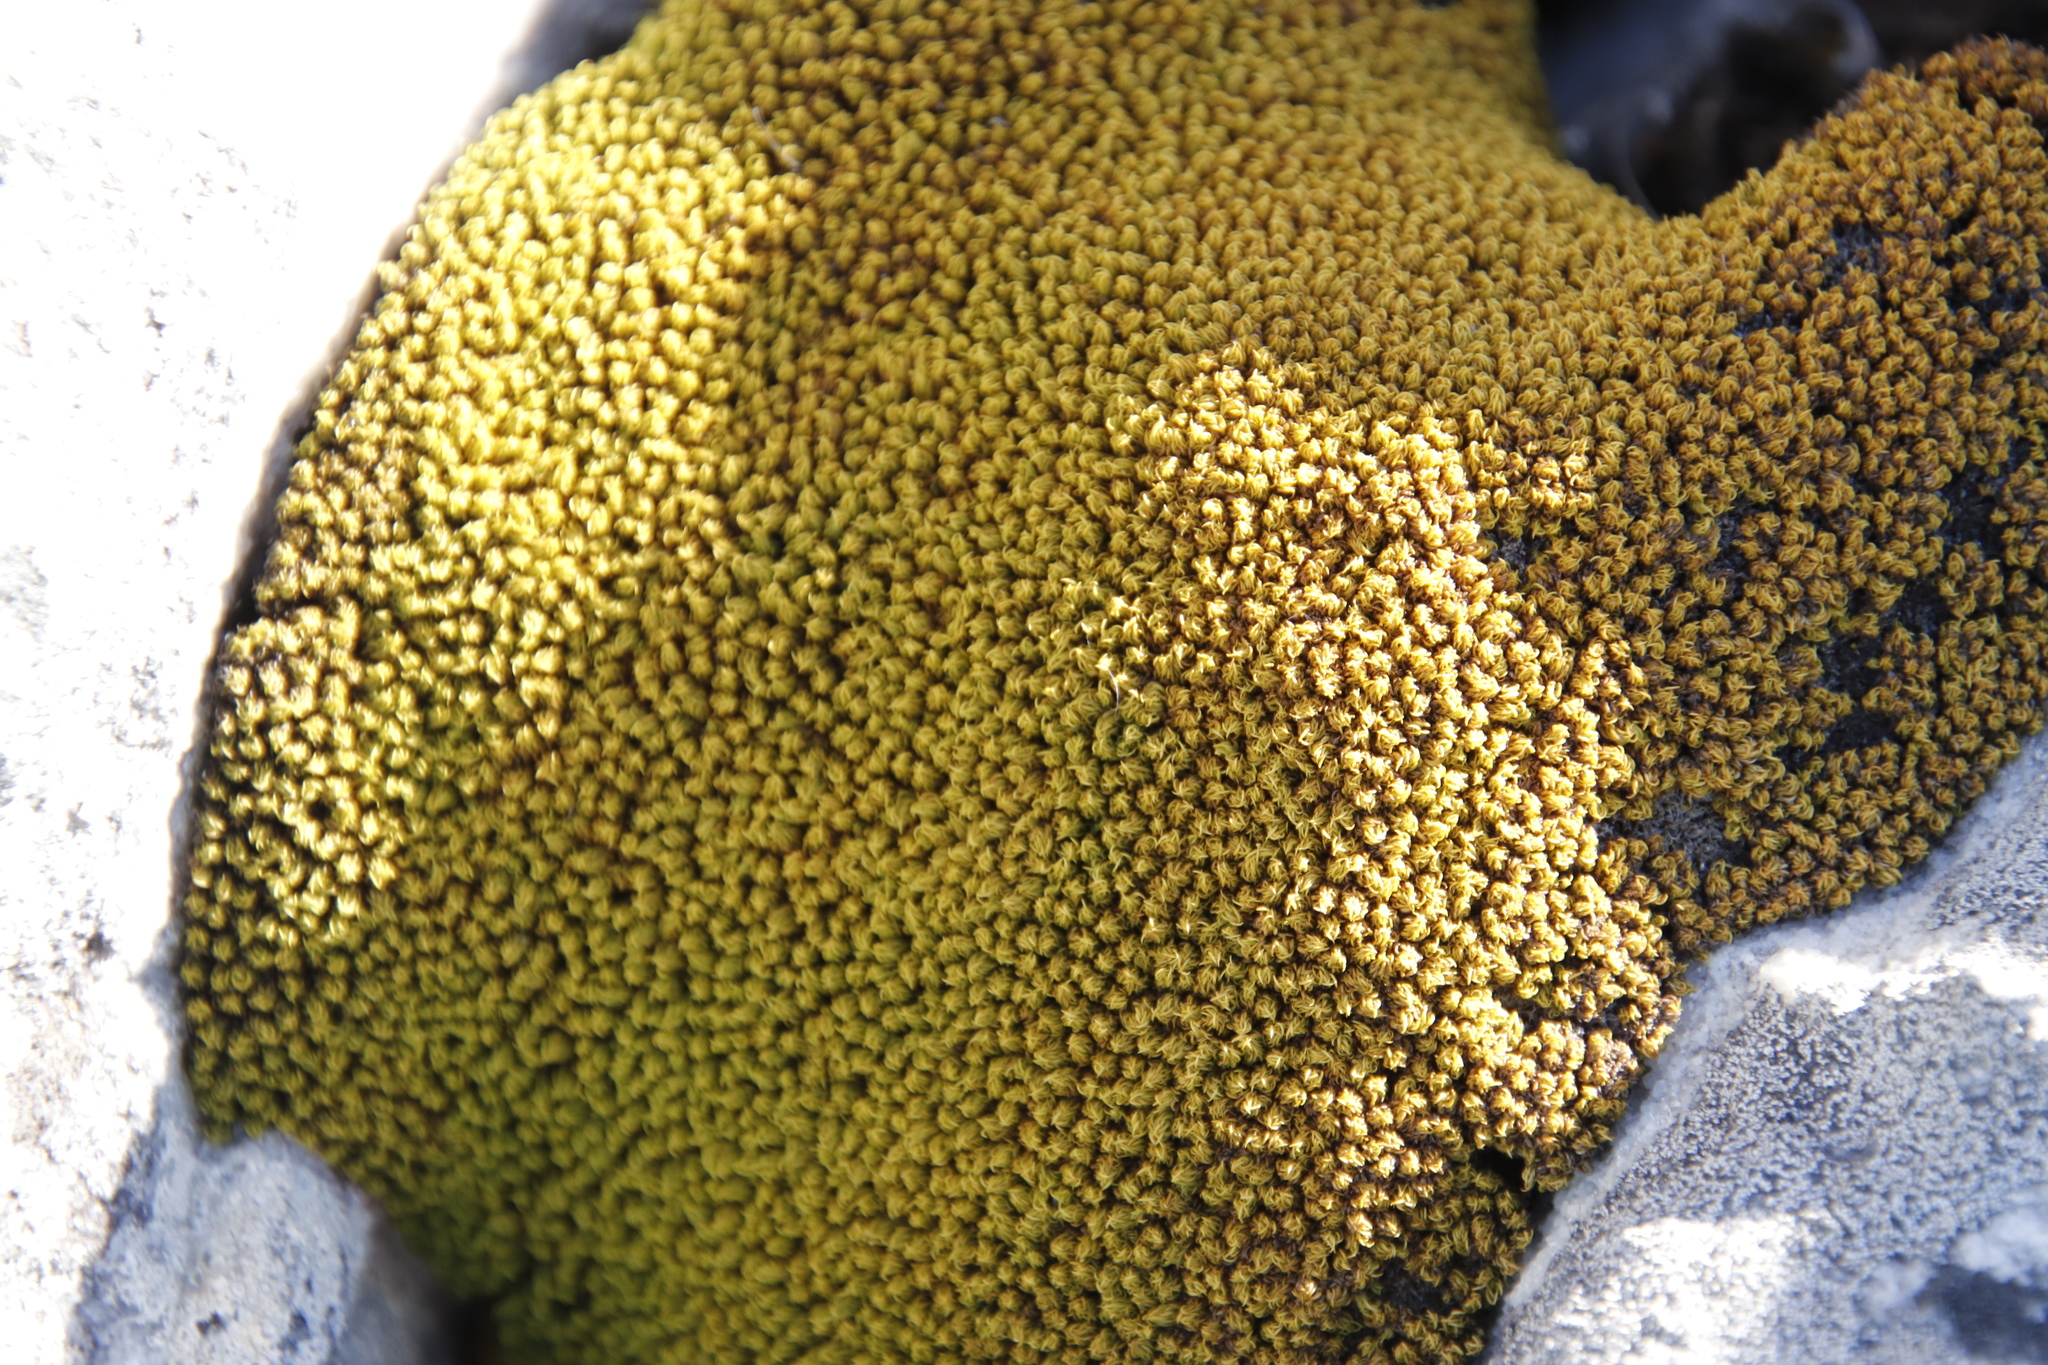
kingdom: Plantae
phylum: Bryophyta
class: Bryopsida
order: Dicranales
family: Hypodontiaceae
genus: Hypodontium
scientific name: Hypodontium pomiforme
